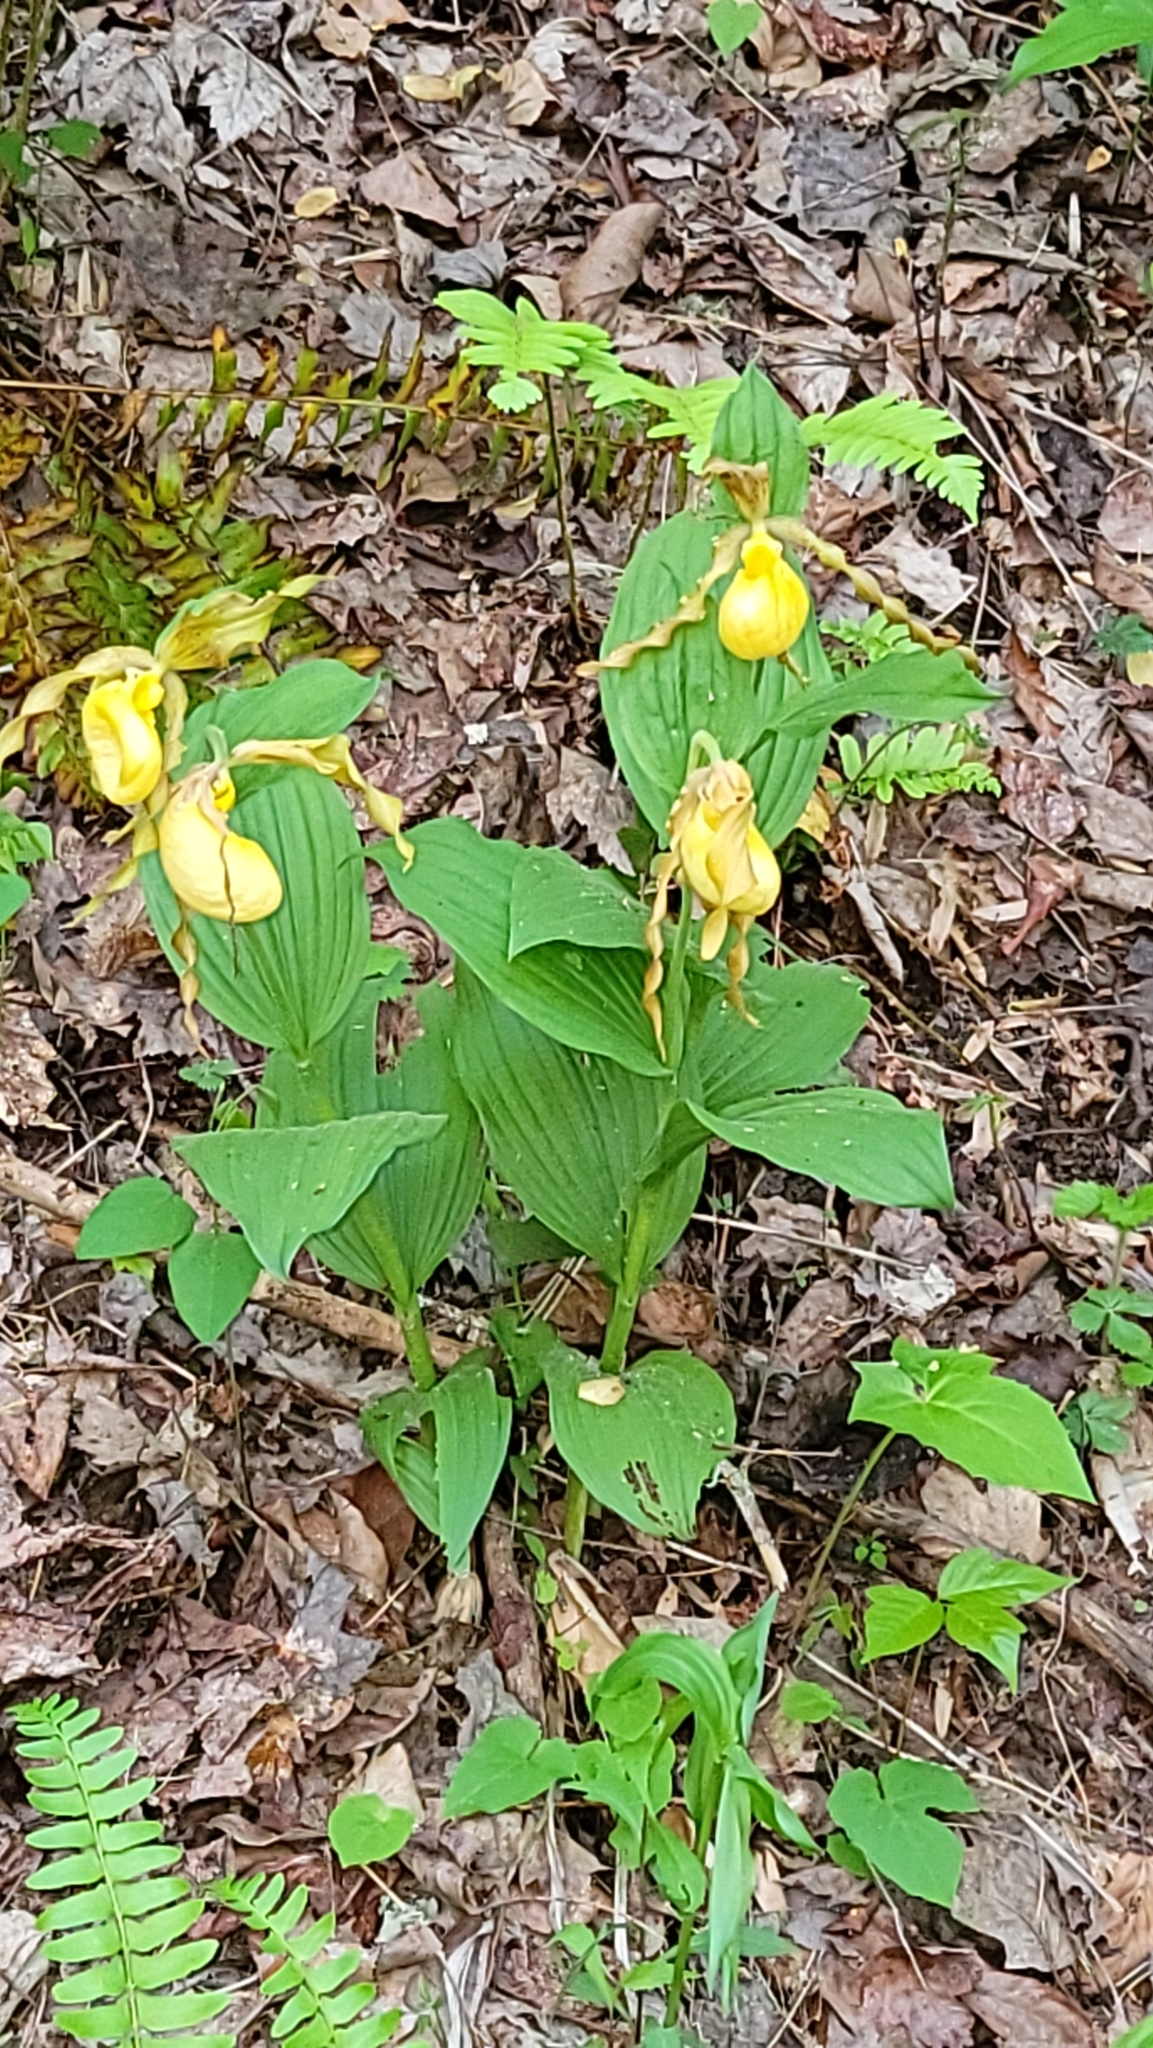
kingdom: Plantae
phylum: Tracheophyta
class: Liliopsida
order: Asparagales
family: Orchidaceae
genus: Cypripedium
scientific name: Cypripedium parviflorum
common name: American yellow lady's-slipper
